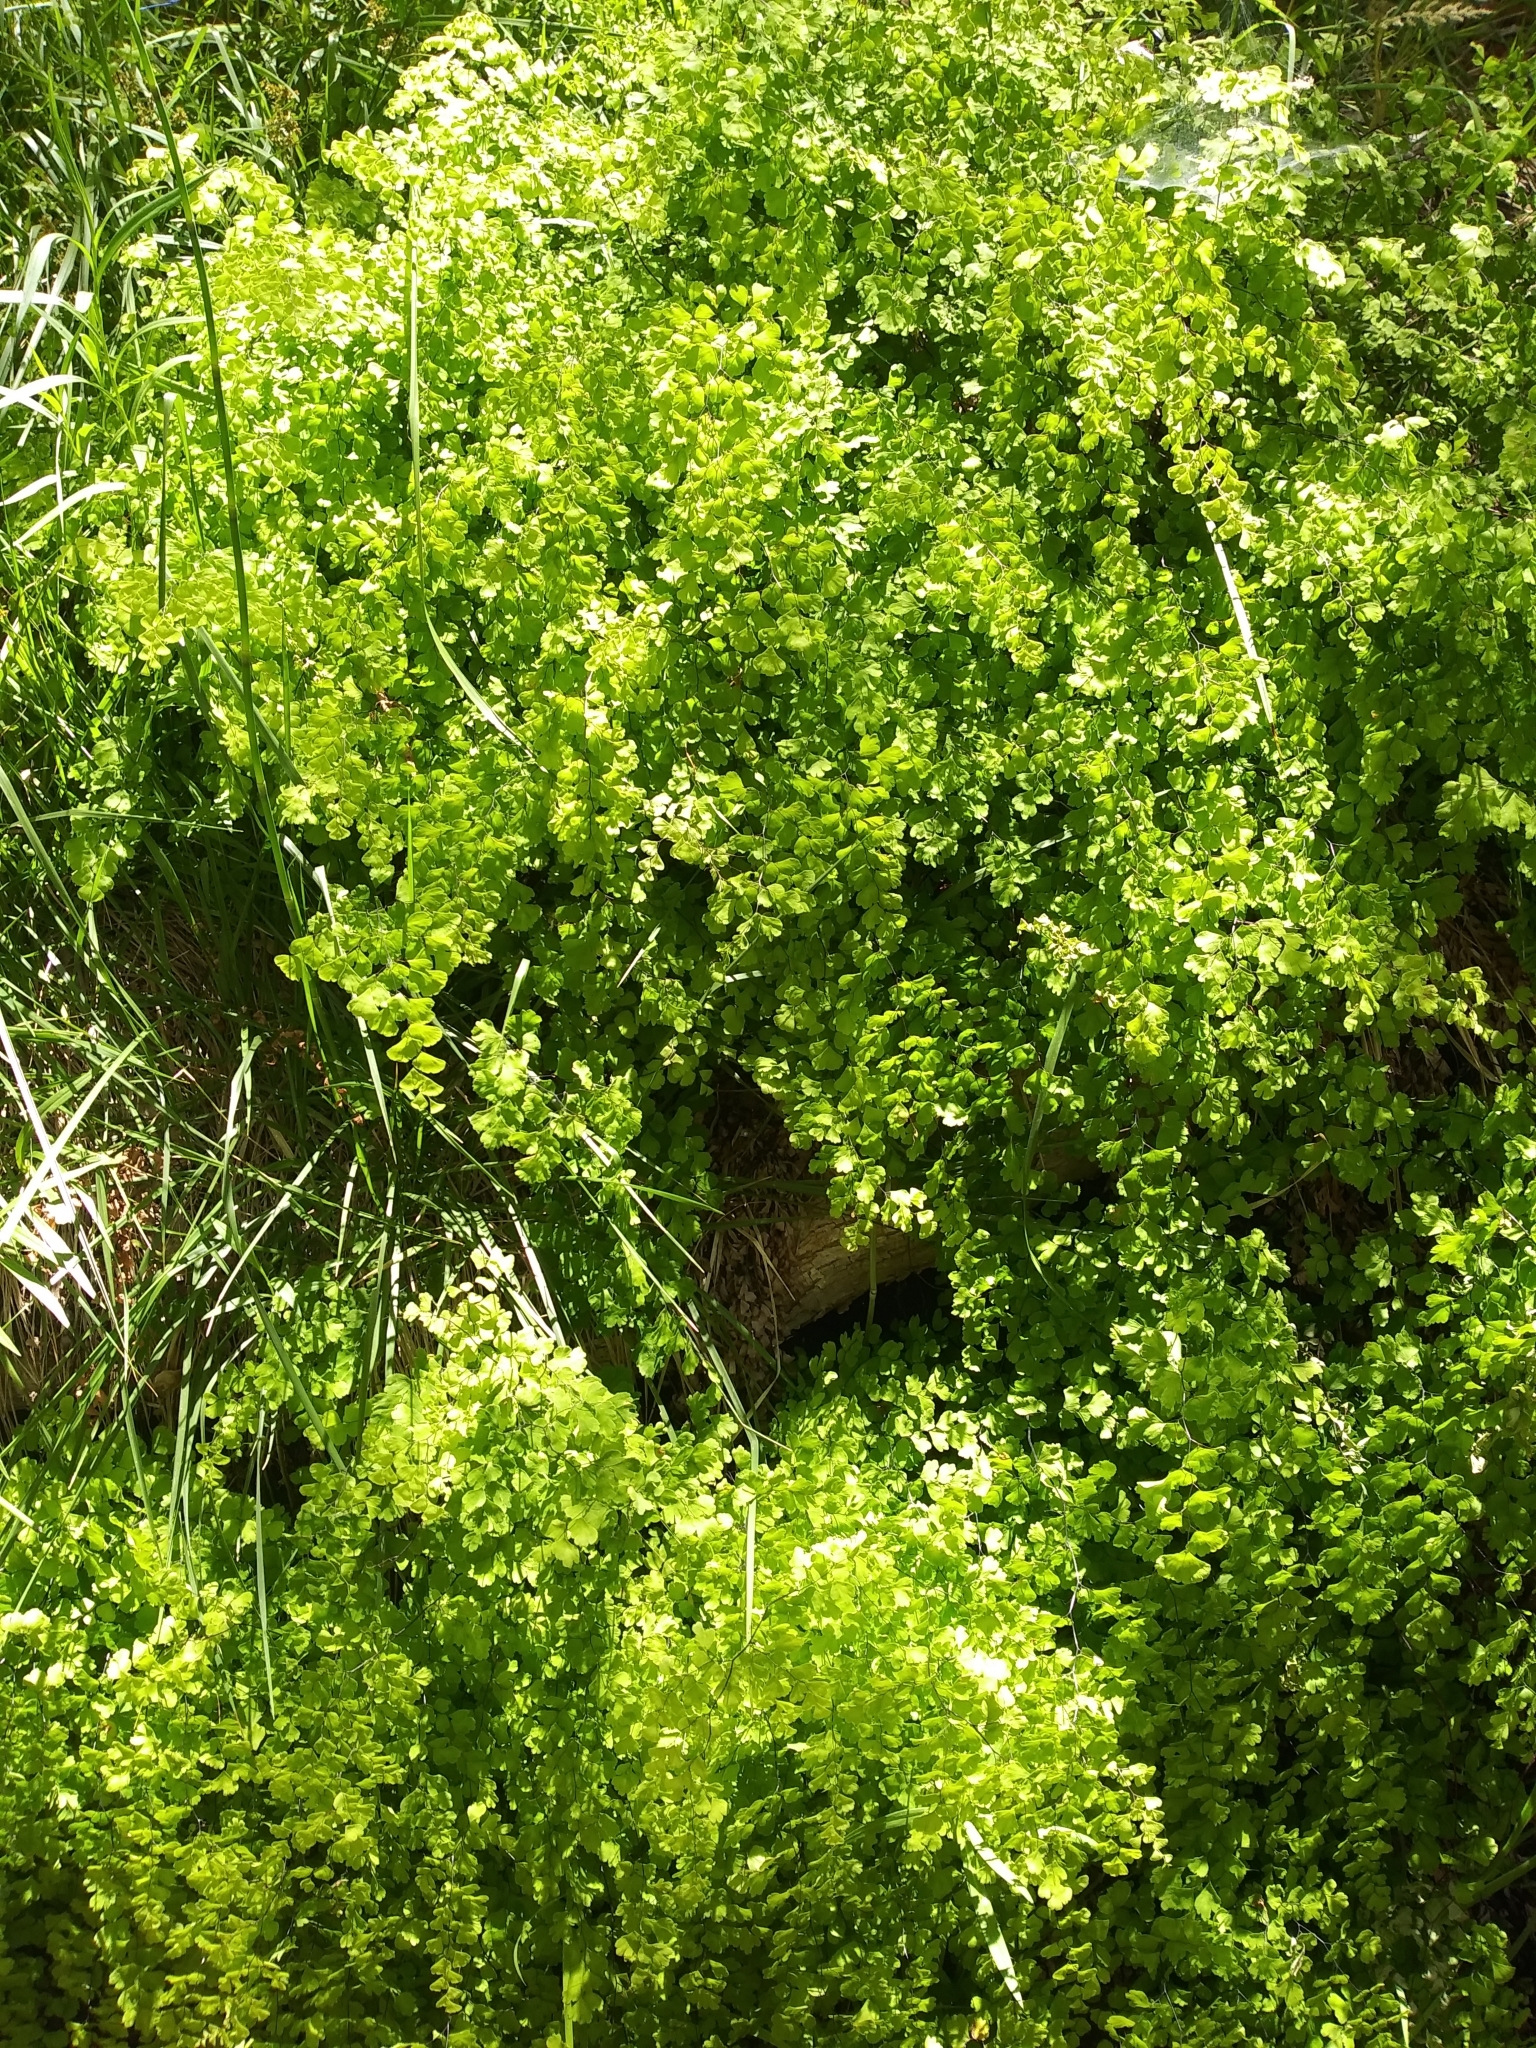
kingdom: Plantae
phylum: Tracheophyta
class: Polypodiopsida
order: Polypodiales
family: Pteridaceae
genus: Adiantum
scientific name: Adiantum capillus-veneris
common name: Maidenhair fern
